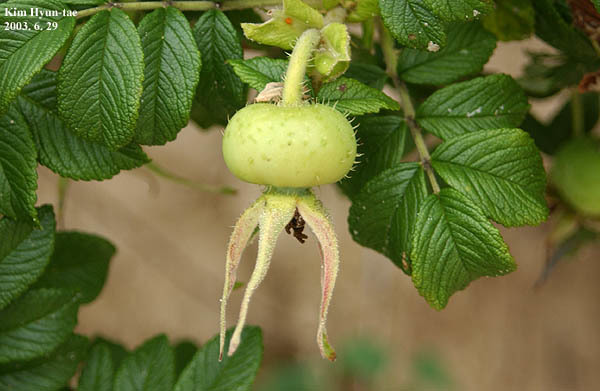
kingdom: Plantae
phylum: Tracheophyta
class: Magnoliopsida
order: Rosales
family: Rosaceae
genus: Rosa
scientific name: Rosa rugosa
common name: Japanese rose
